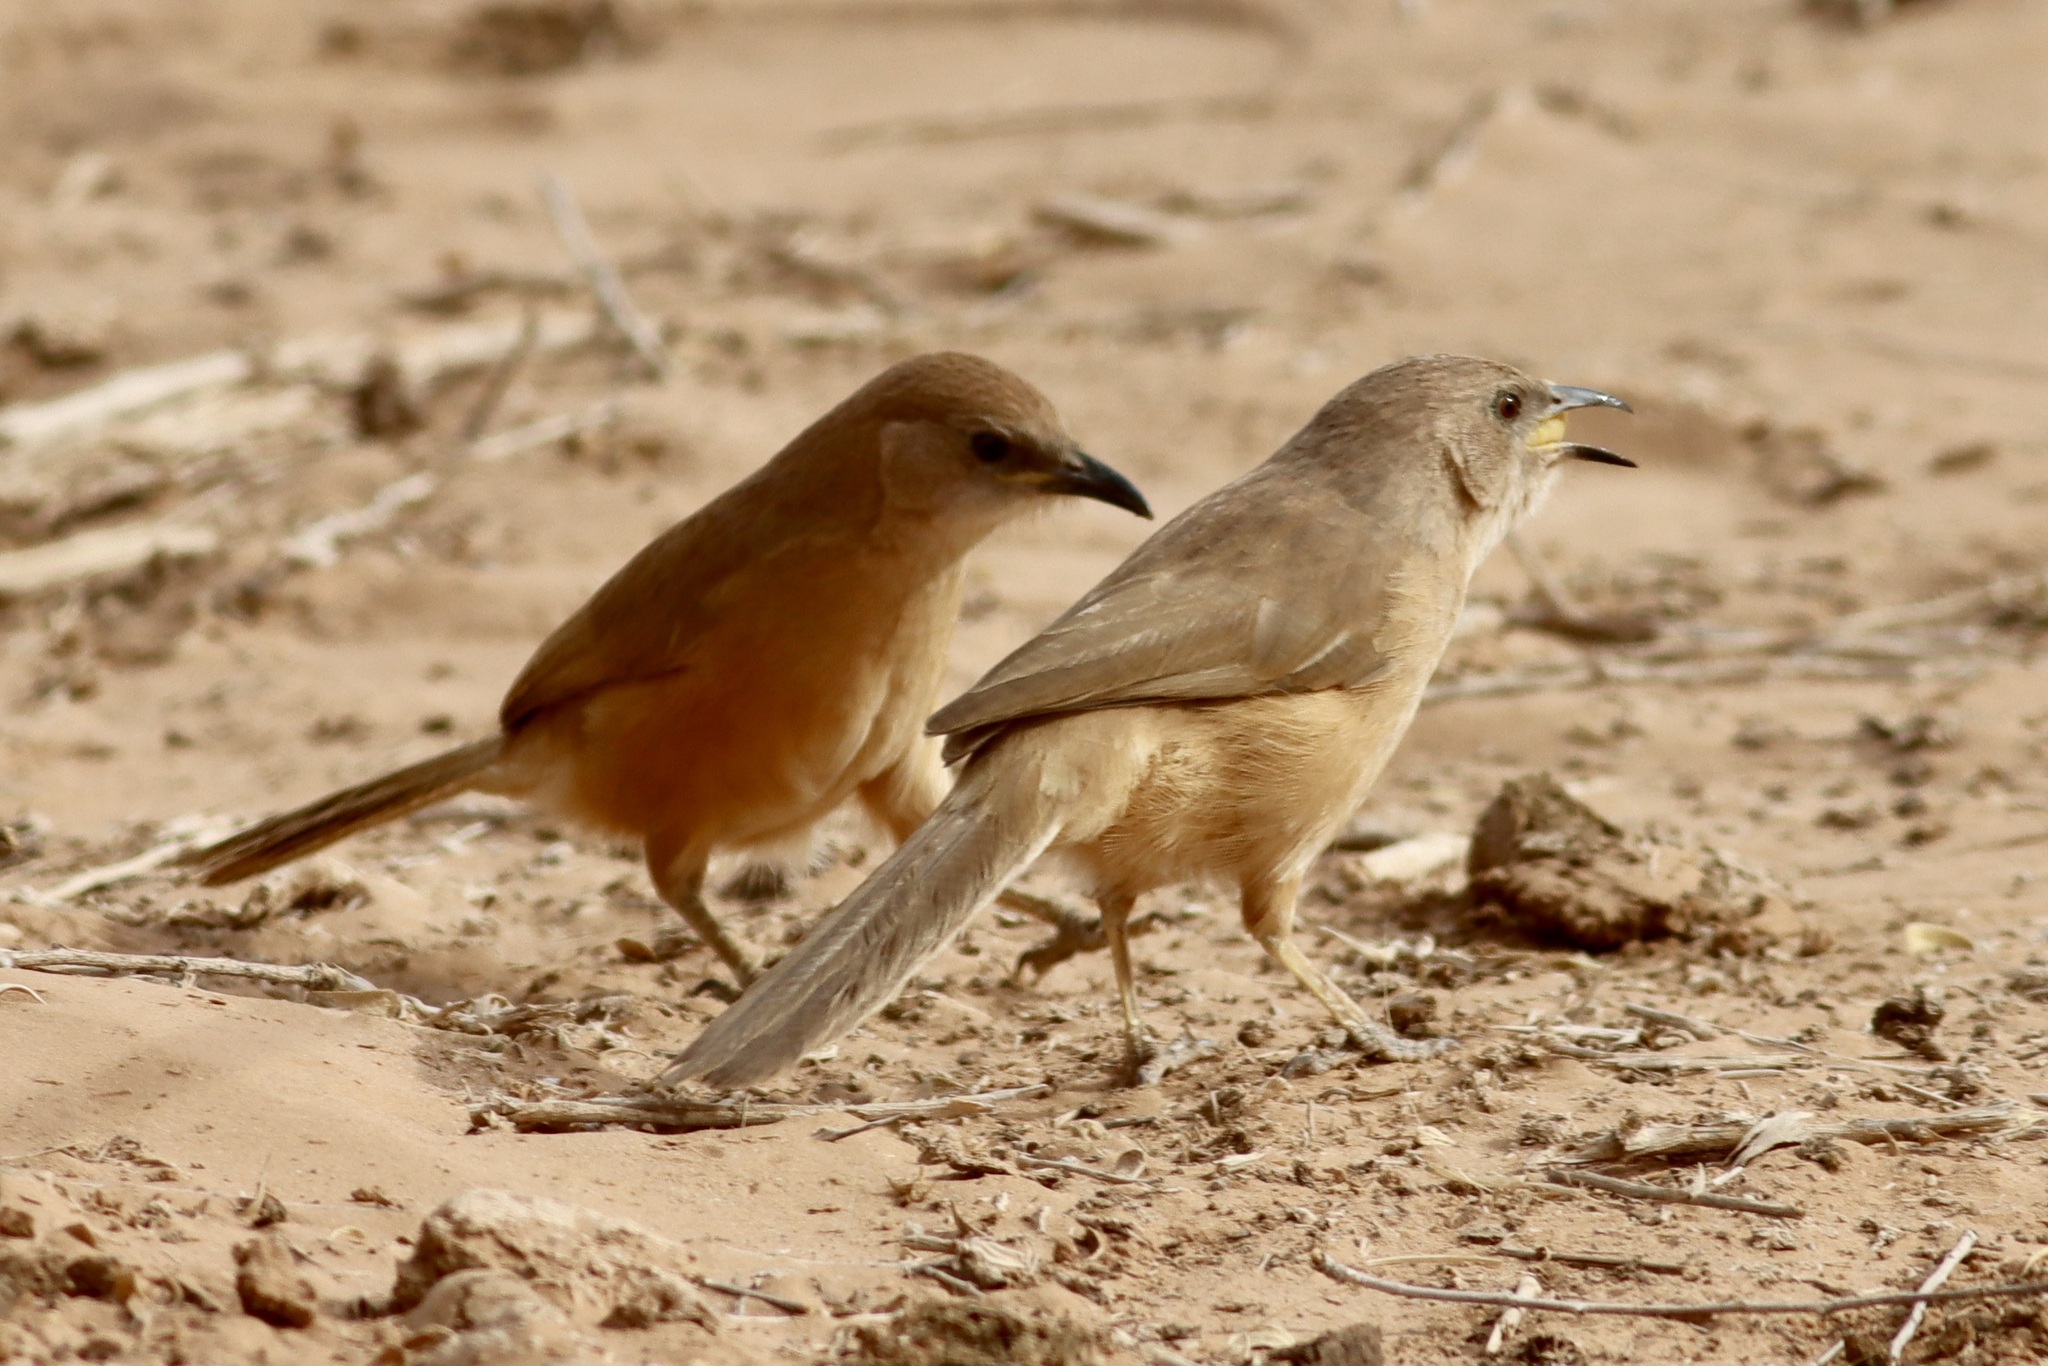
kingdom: Animalia
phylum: Chordata
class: Aves
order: Passeriformes
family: Leiothrichidae
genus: Turdoides
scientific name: Turdoides fulva
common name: Fulvous babbler
